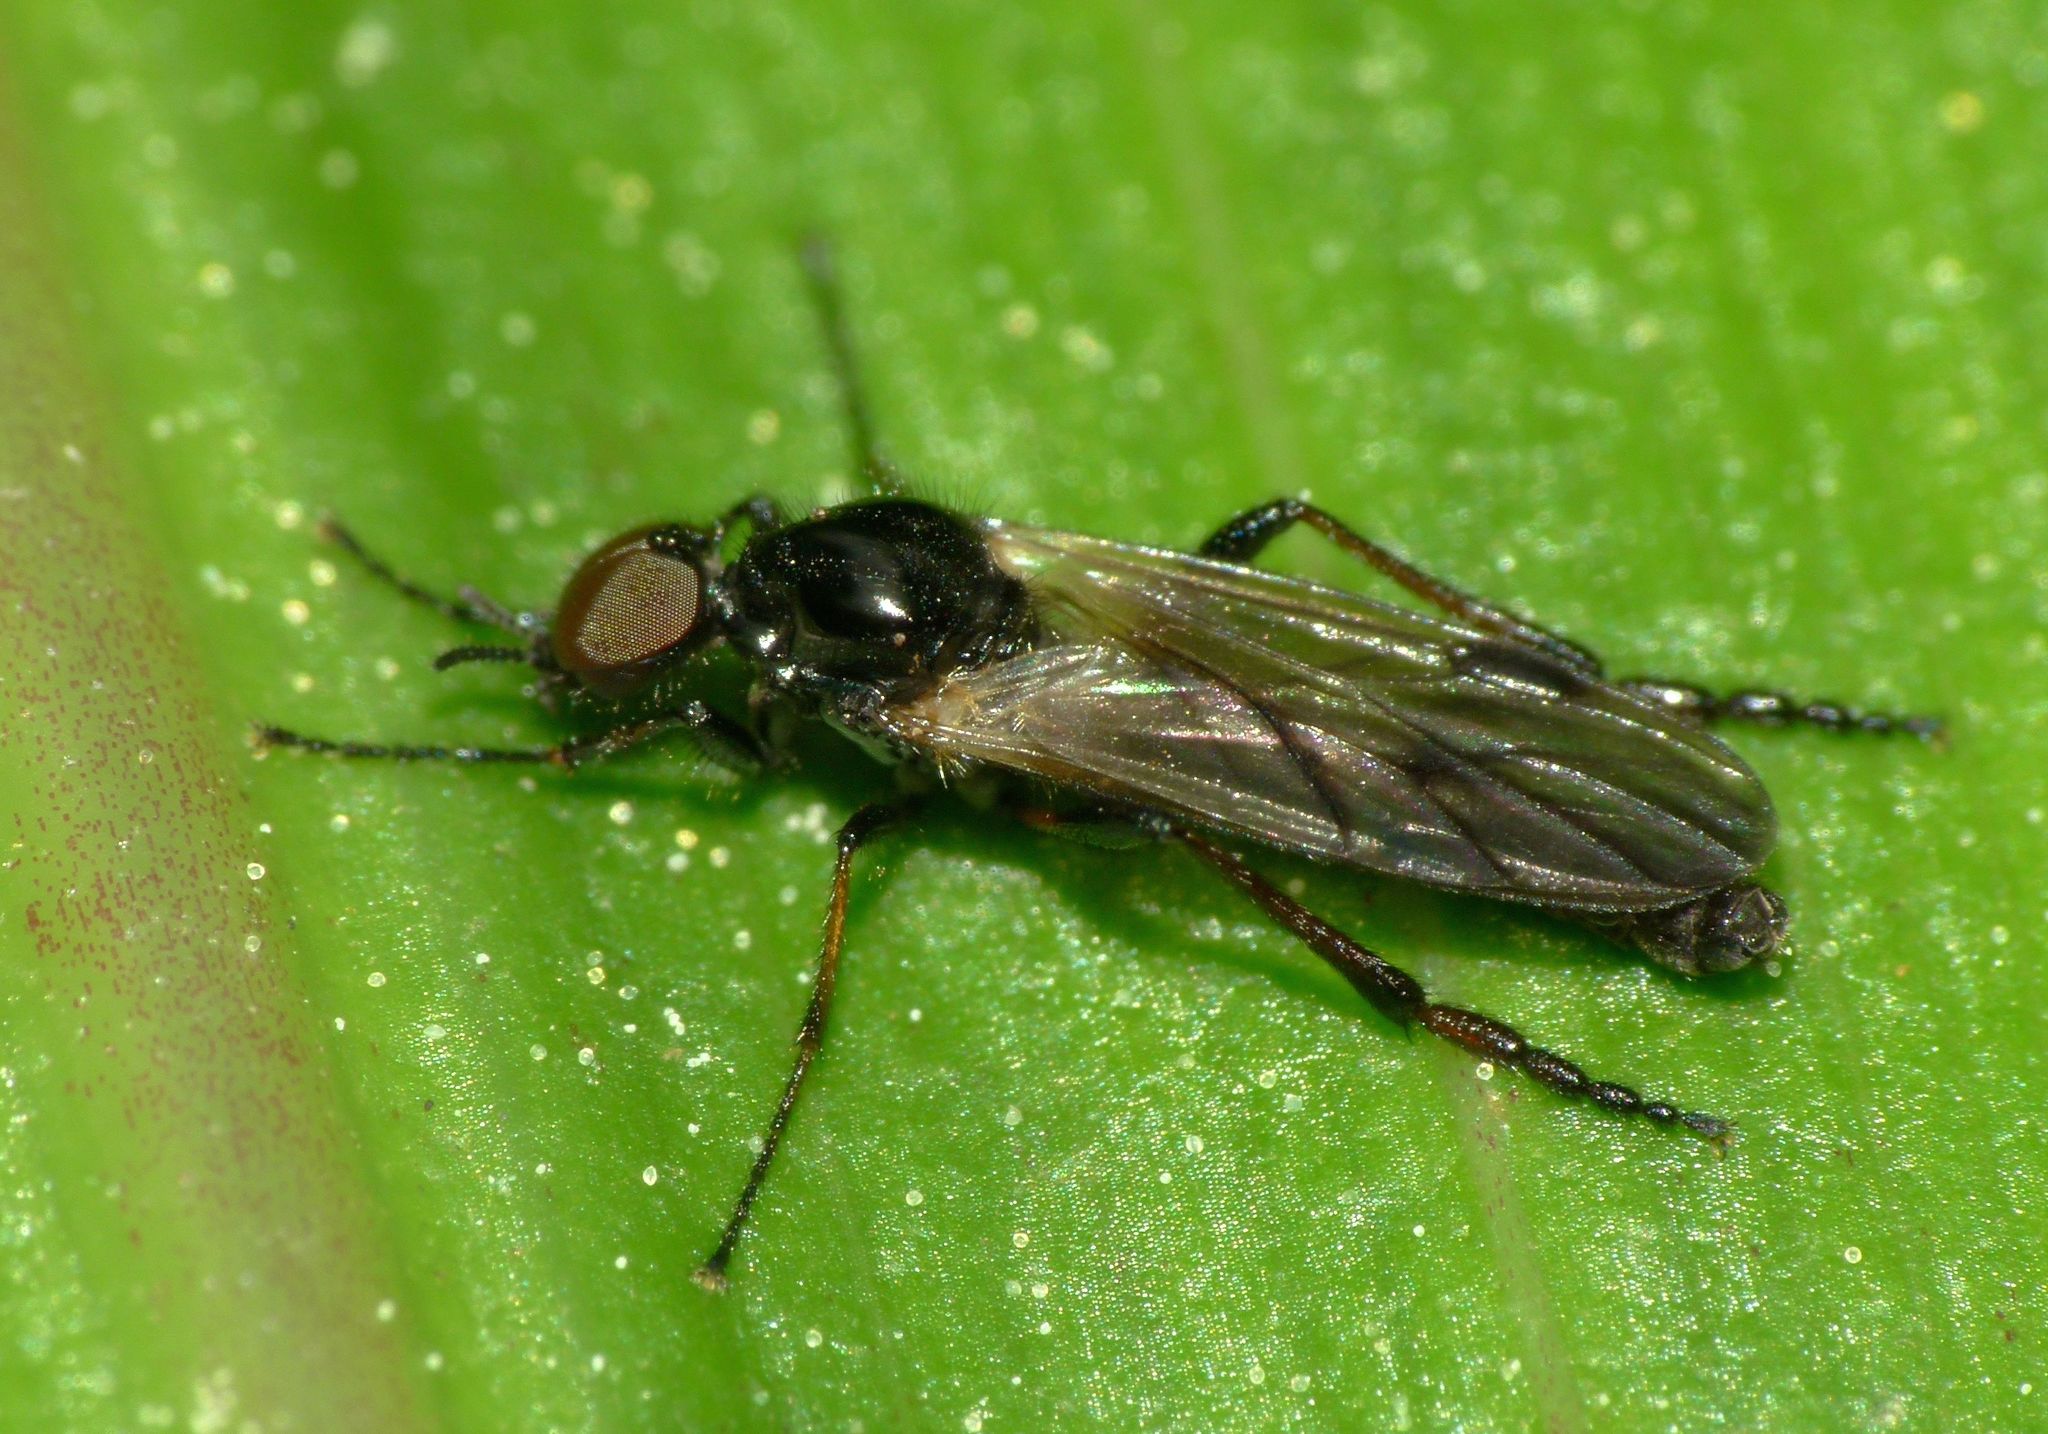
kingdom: Animalia
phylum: Arthropoda
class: Insecta
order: Diptera
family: Bibionidae
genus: Dilophus
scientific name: Dilophus nigrostigma
